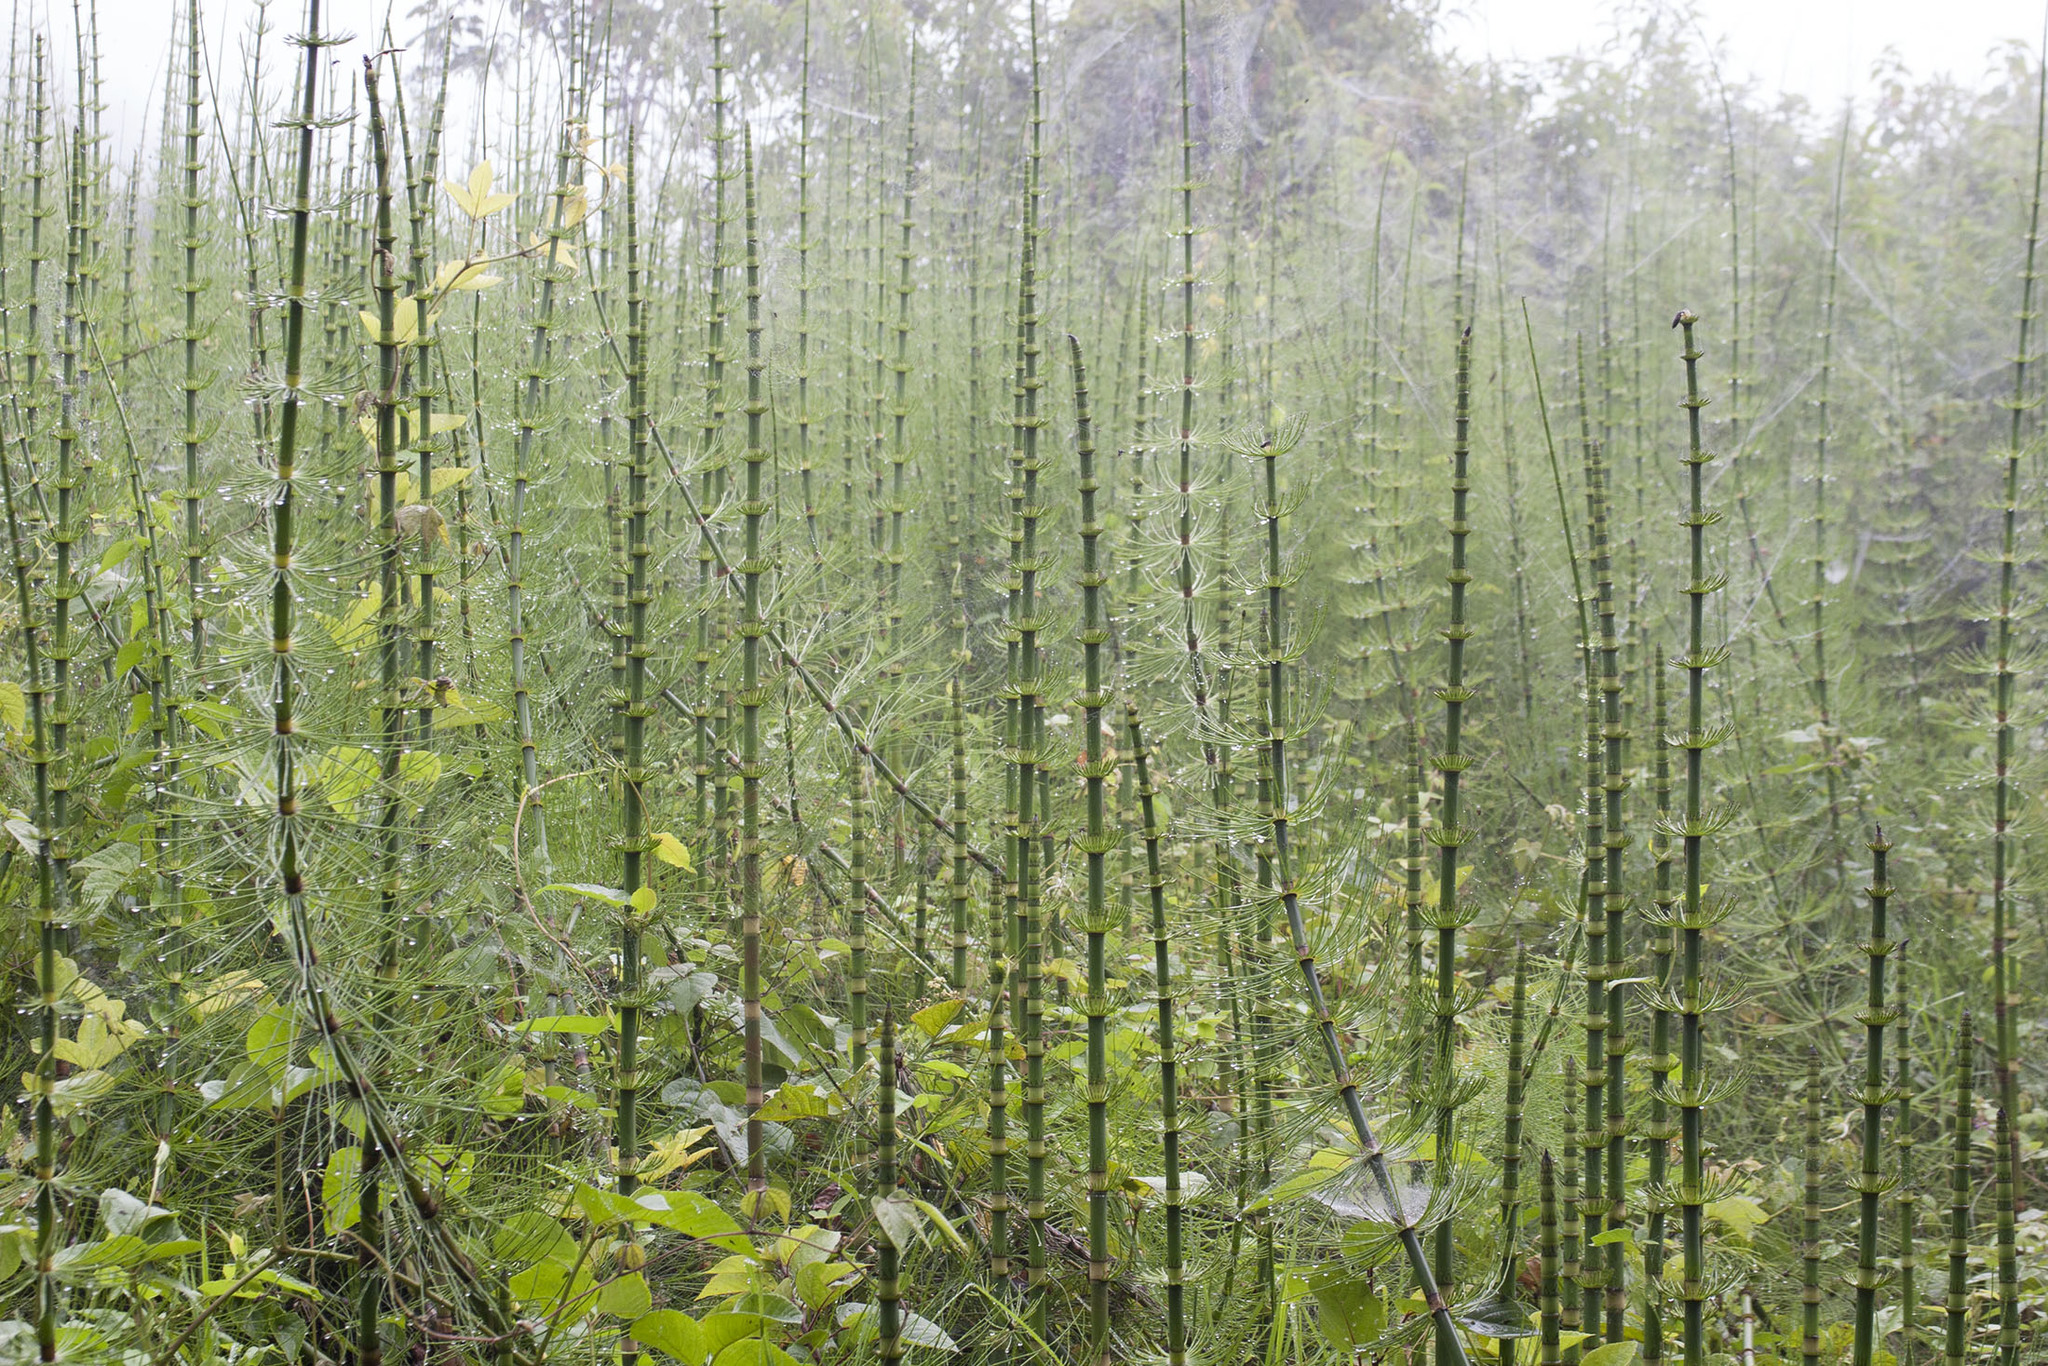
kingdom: Plantae
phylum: Tracheophyta
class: Polypodiopsida
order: Equisetales
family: Equisetaceae
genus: Equisetum
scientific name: Equisetum giganteum
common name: Giant horsetail
